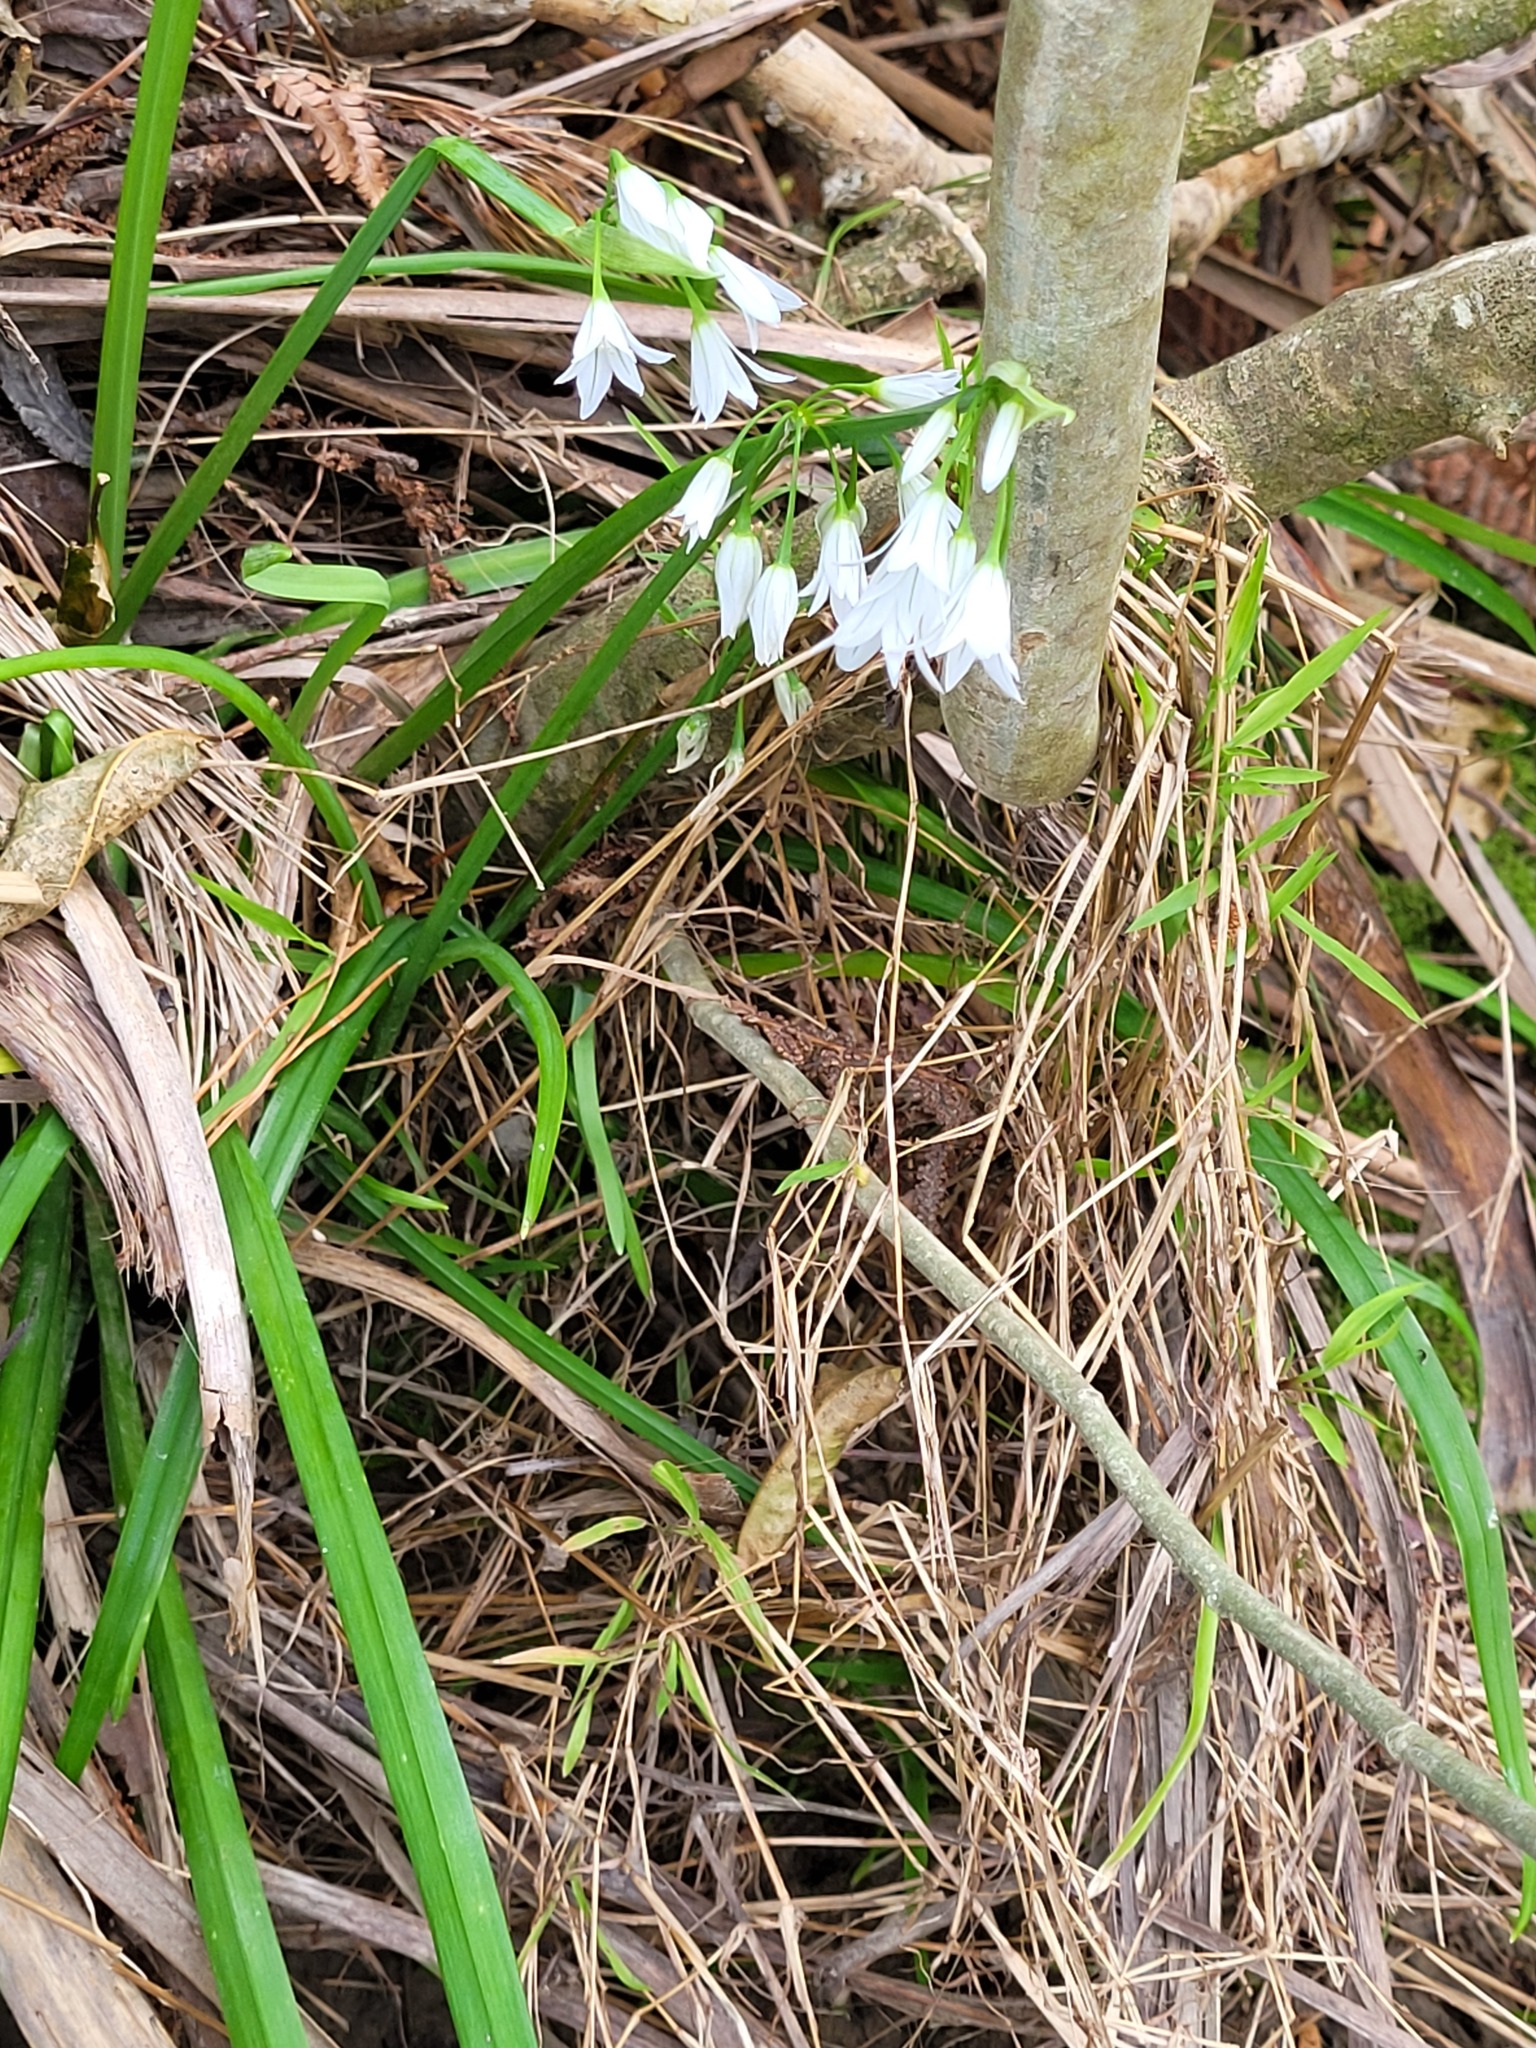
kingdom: Plantae
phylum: Tracheophyta
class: Liliopsida
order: Asparagales
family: Amaryllidaceae
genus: Allium
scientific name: Allium triquetrum
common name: Three-cornered garlic
